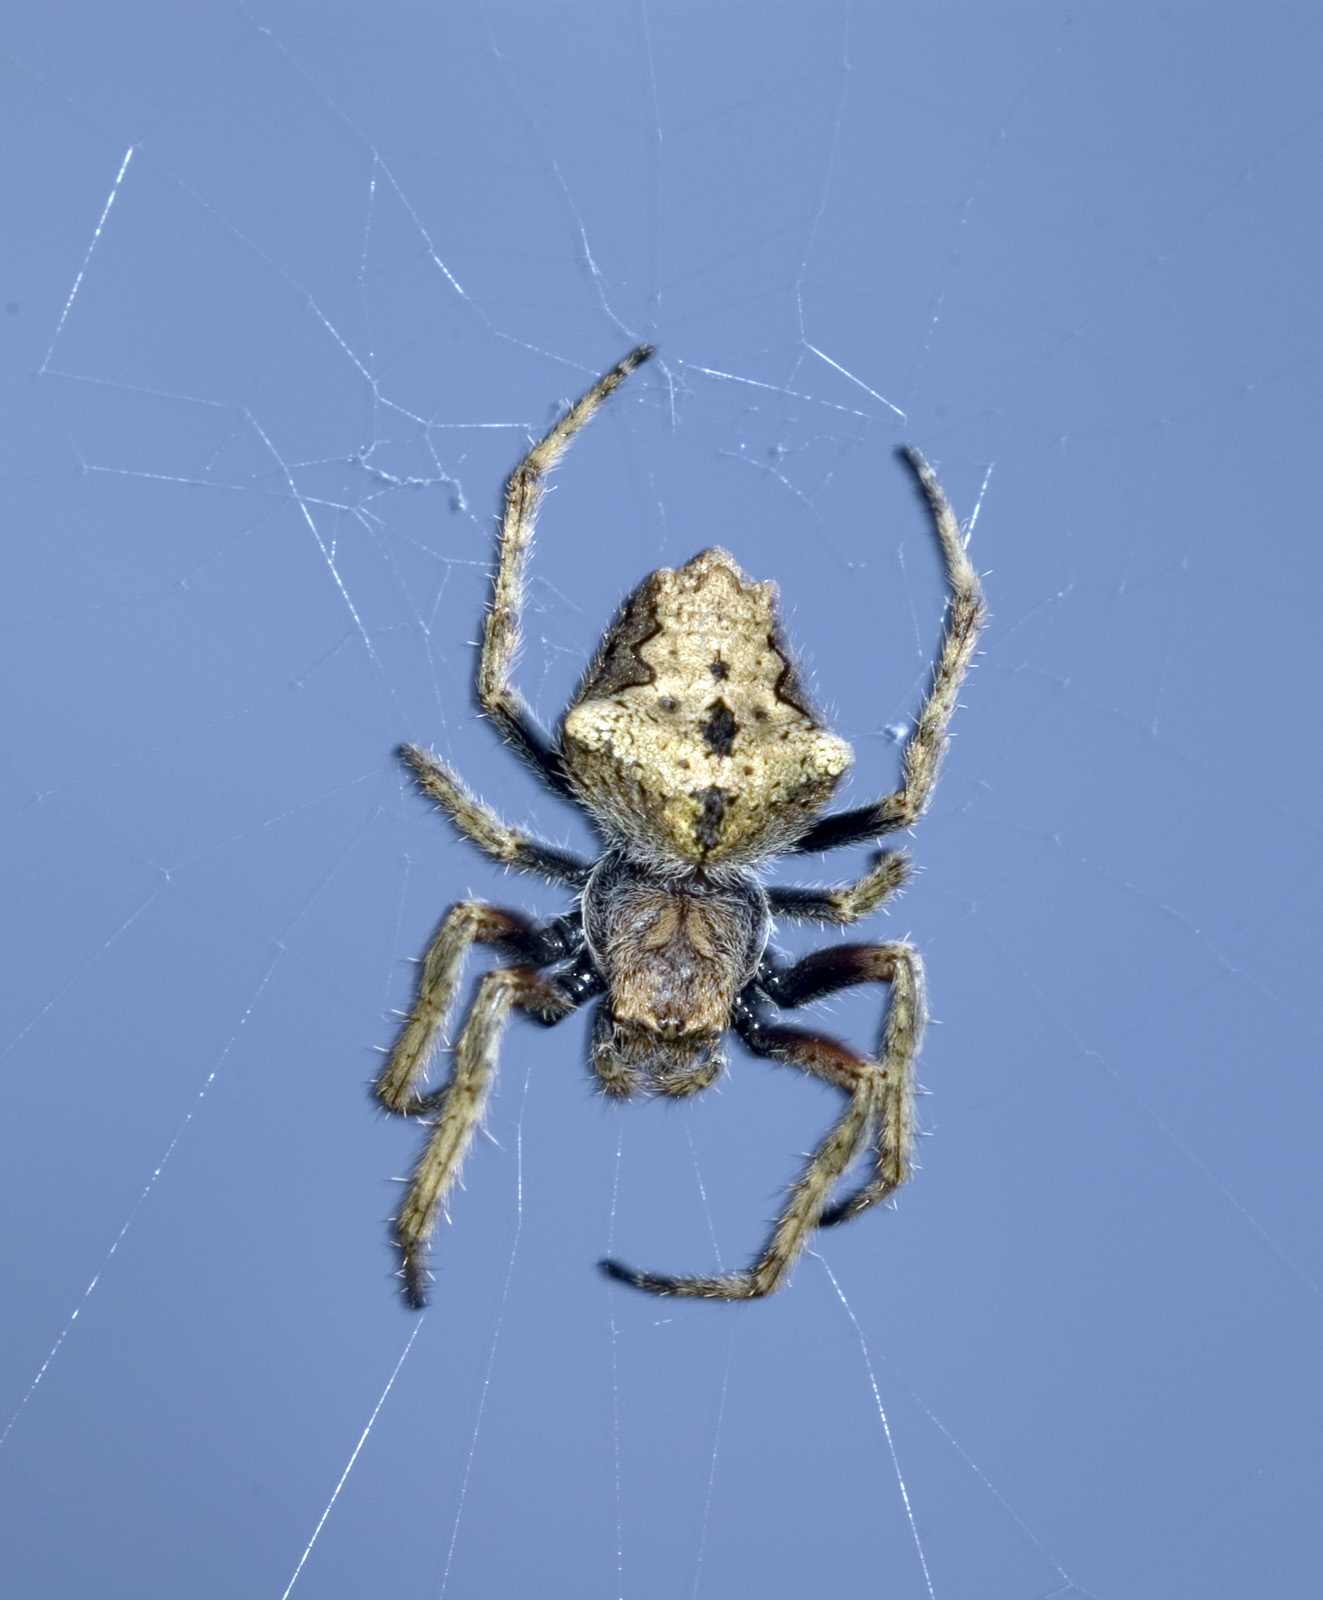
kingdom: Animalia
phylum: Arthropoda
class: Arachnida
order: Araneae
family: Araneidae
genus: Eriophora
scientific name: Eriophora pustulosa
